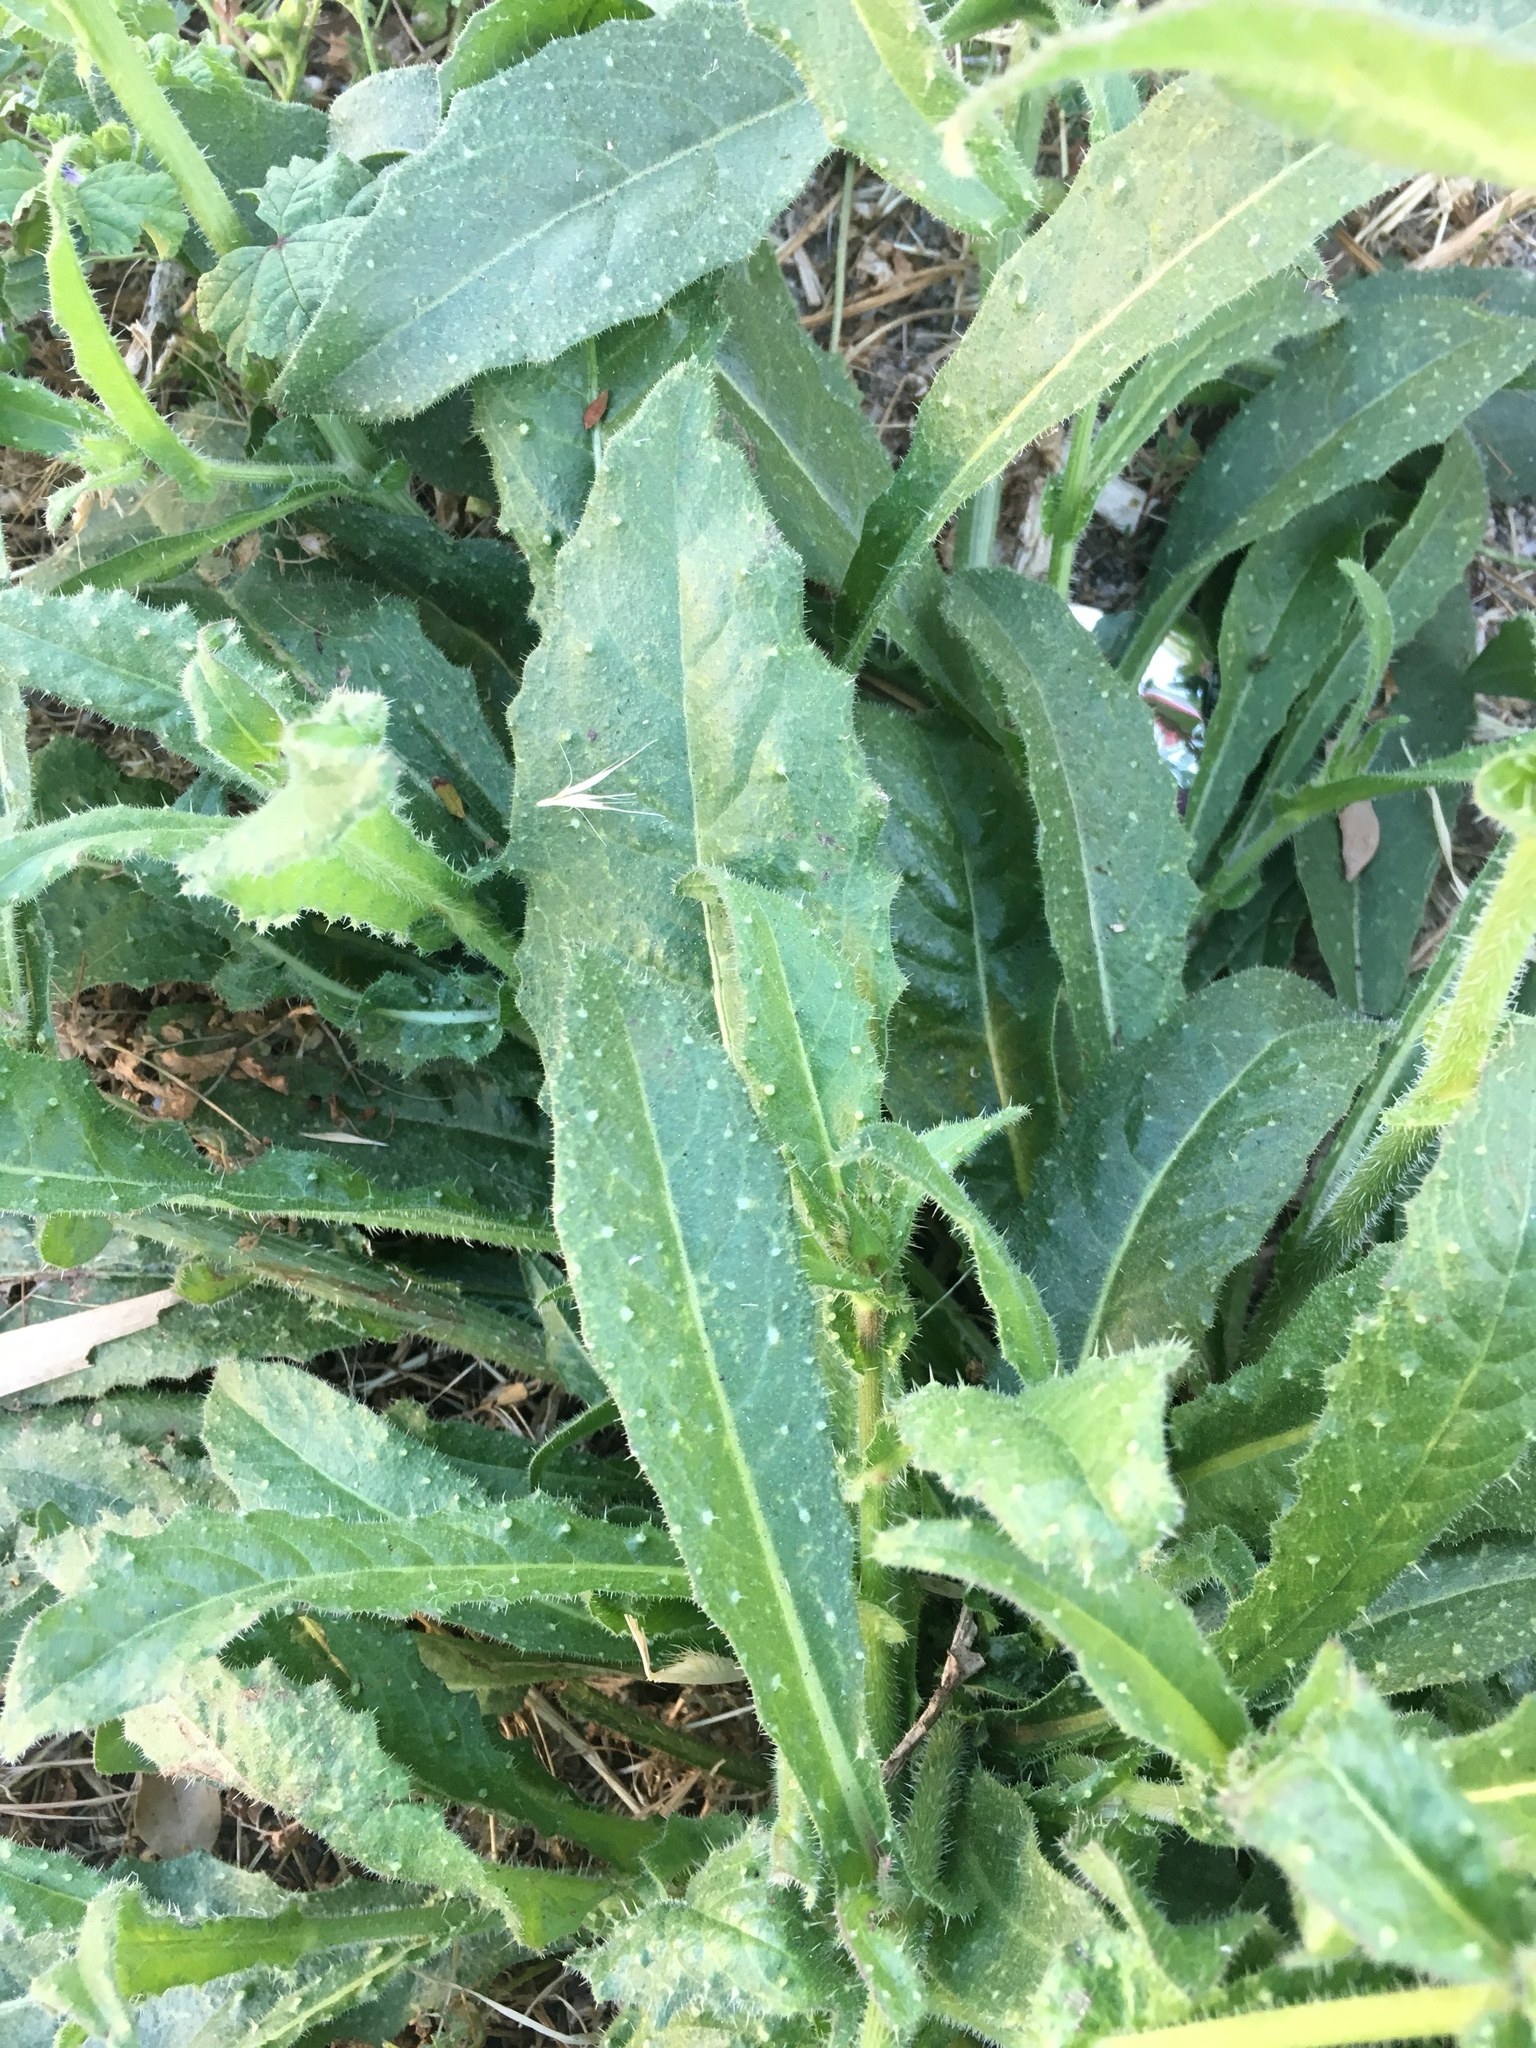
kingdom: Plantae
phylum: Tracheophyta
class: Magnoliopsida
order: Asterales
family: Asteraceae
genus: Helminthotheca
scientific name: Helminthotheca echioides
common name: Ox-tongue
